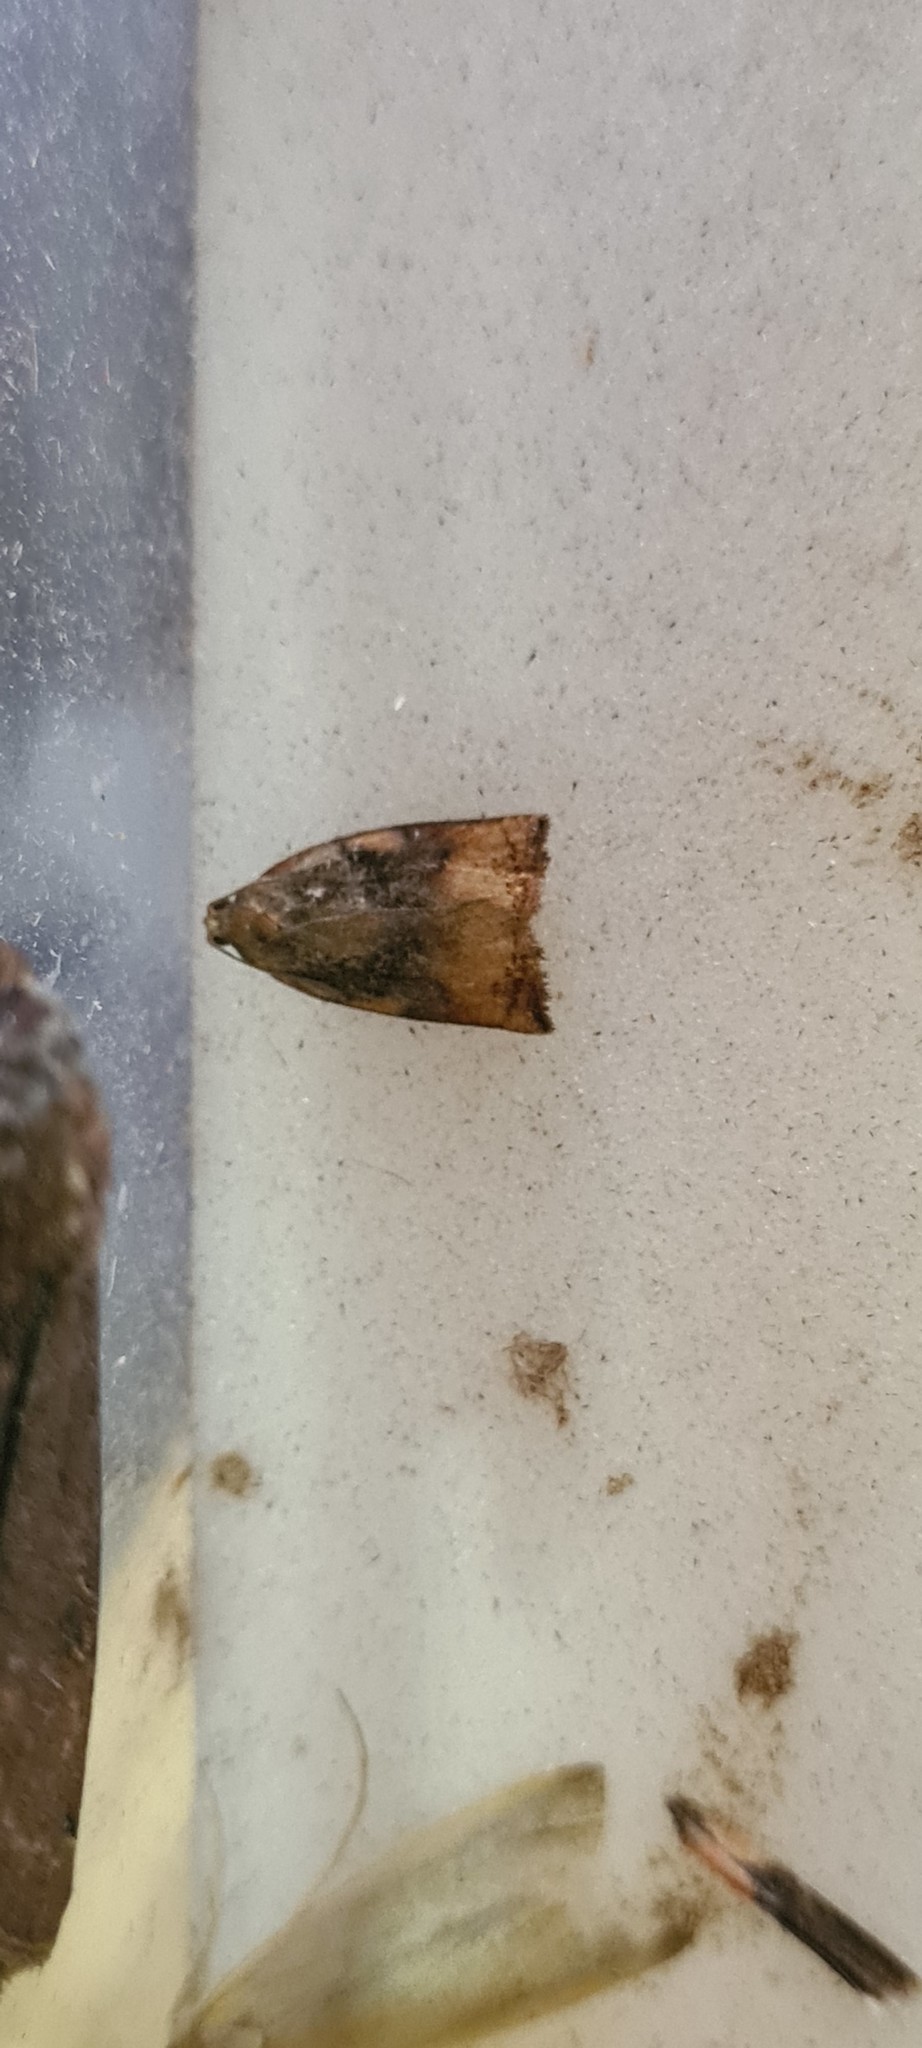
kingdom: Animalia
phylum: Arthropoda
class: Insecta
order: Lepidoptera
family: Tortricidae
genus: Archips
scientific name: Archips podana
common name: Large fruit-tree tortrix
